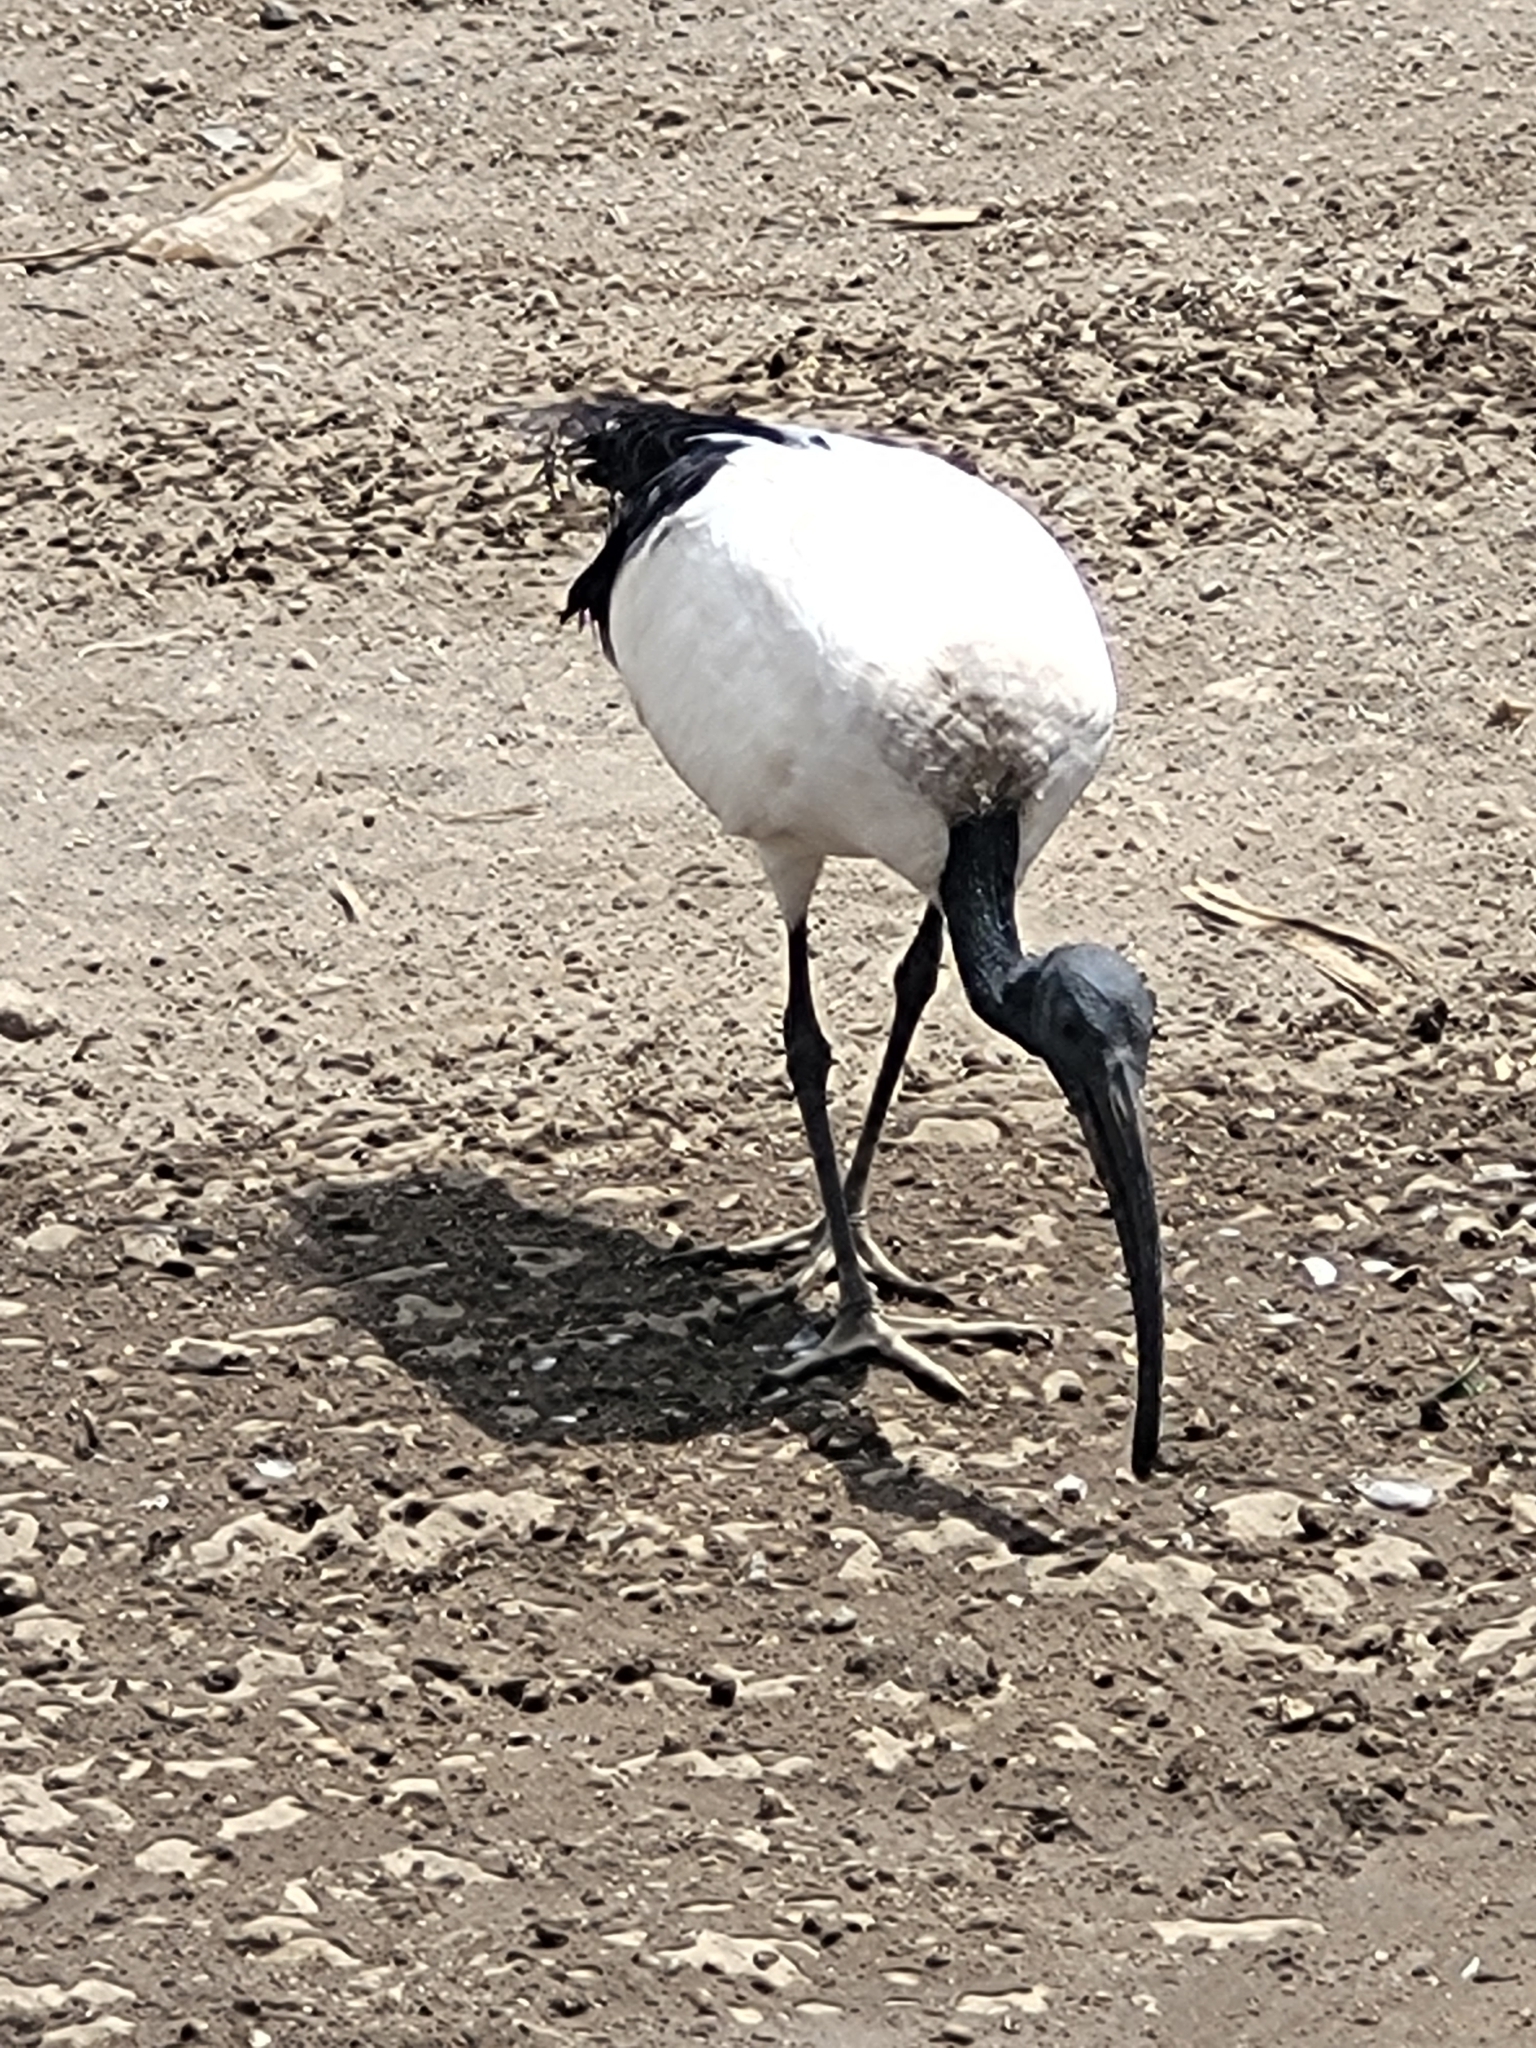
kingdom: Animalia
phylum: Chordata
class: Aves
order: Pelecaniformes
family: Threskiornithidae
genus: Threskiornis
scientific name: Threskiornis aethiopicus
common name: Sacred ibis
